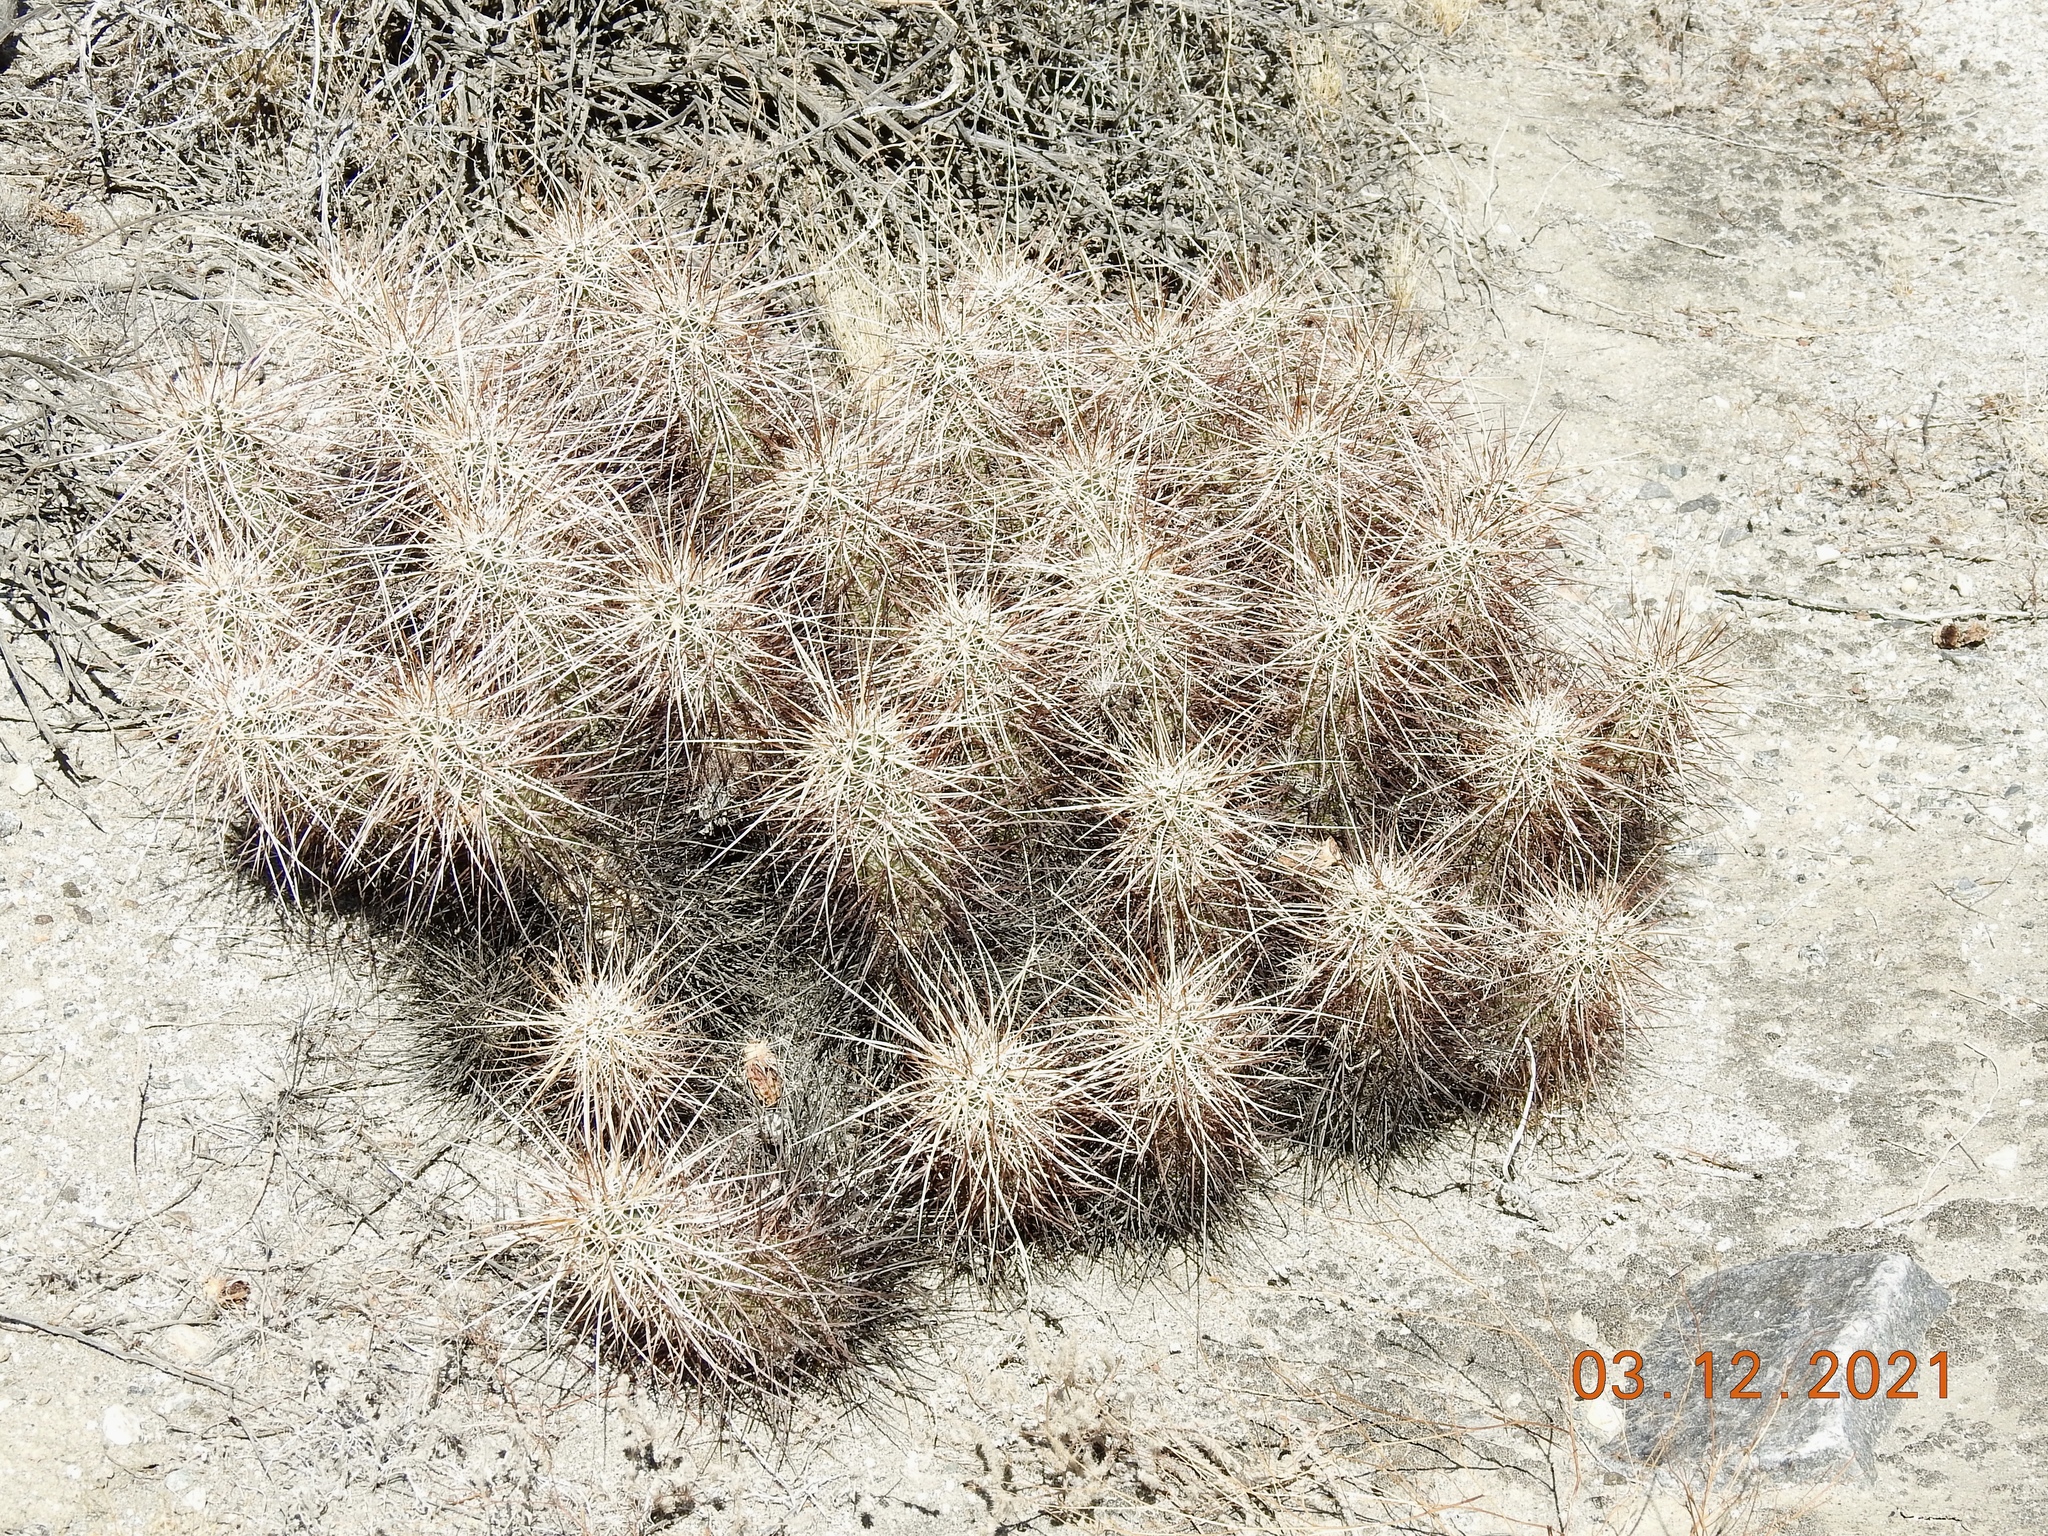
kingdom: Plantae
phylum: Tracheophyta
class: Magnoliopsida
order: Caryophyllales
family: Cactaceae
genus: Echinocereus
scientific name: Echinocereus engelmannii
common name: Engelmann's hedgehog cactus
